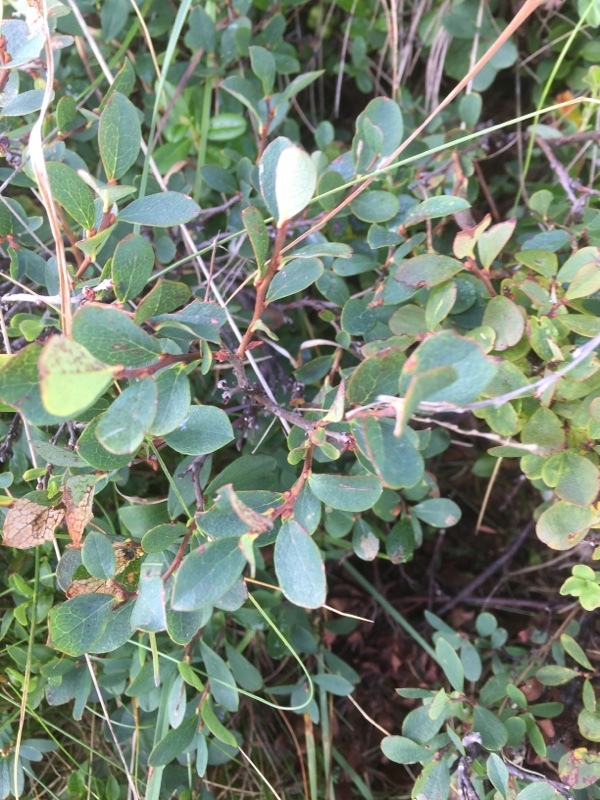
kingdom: Plantae
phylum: Tracheophyta
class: Magnoliopsida
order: Ericales
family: Ericaceae
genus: Vaccinium
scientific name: Vaccinium uliginosum
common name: Bog bilberry
